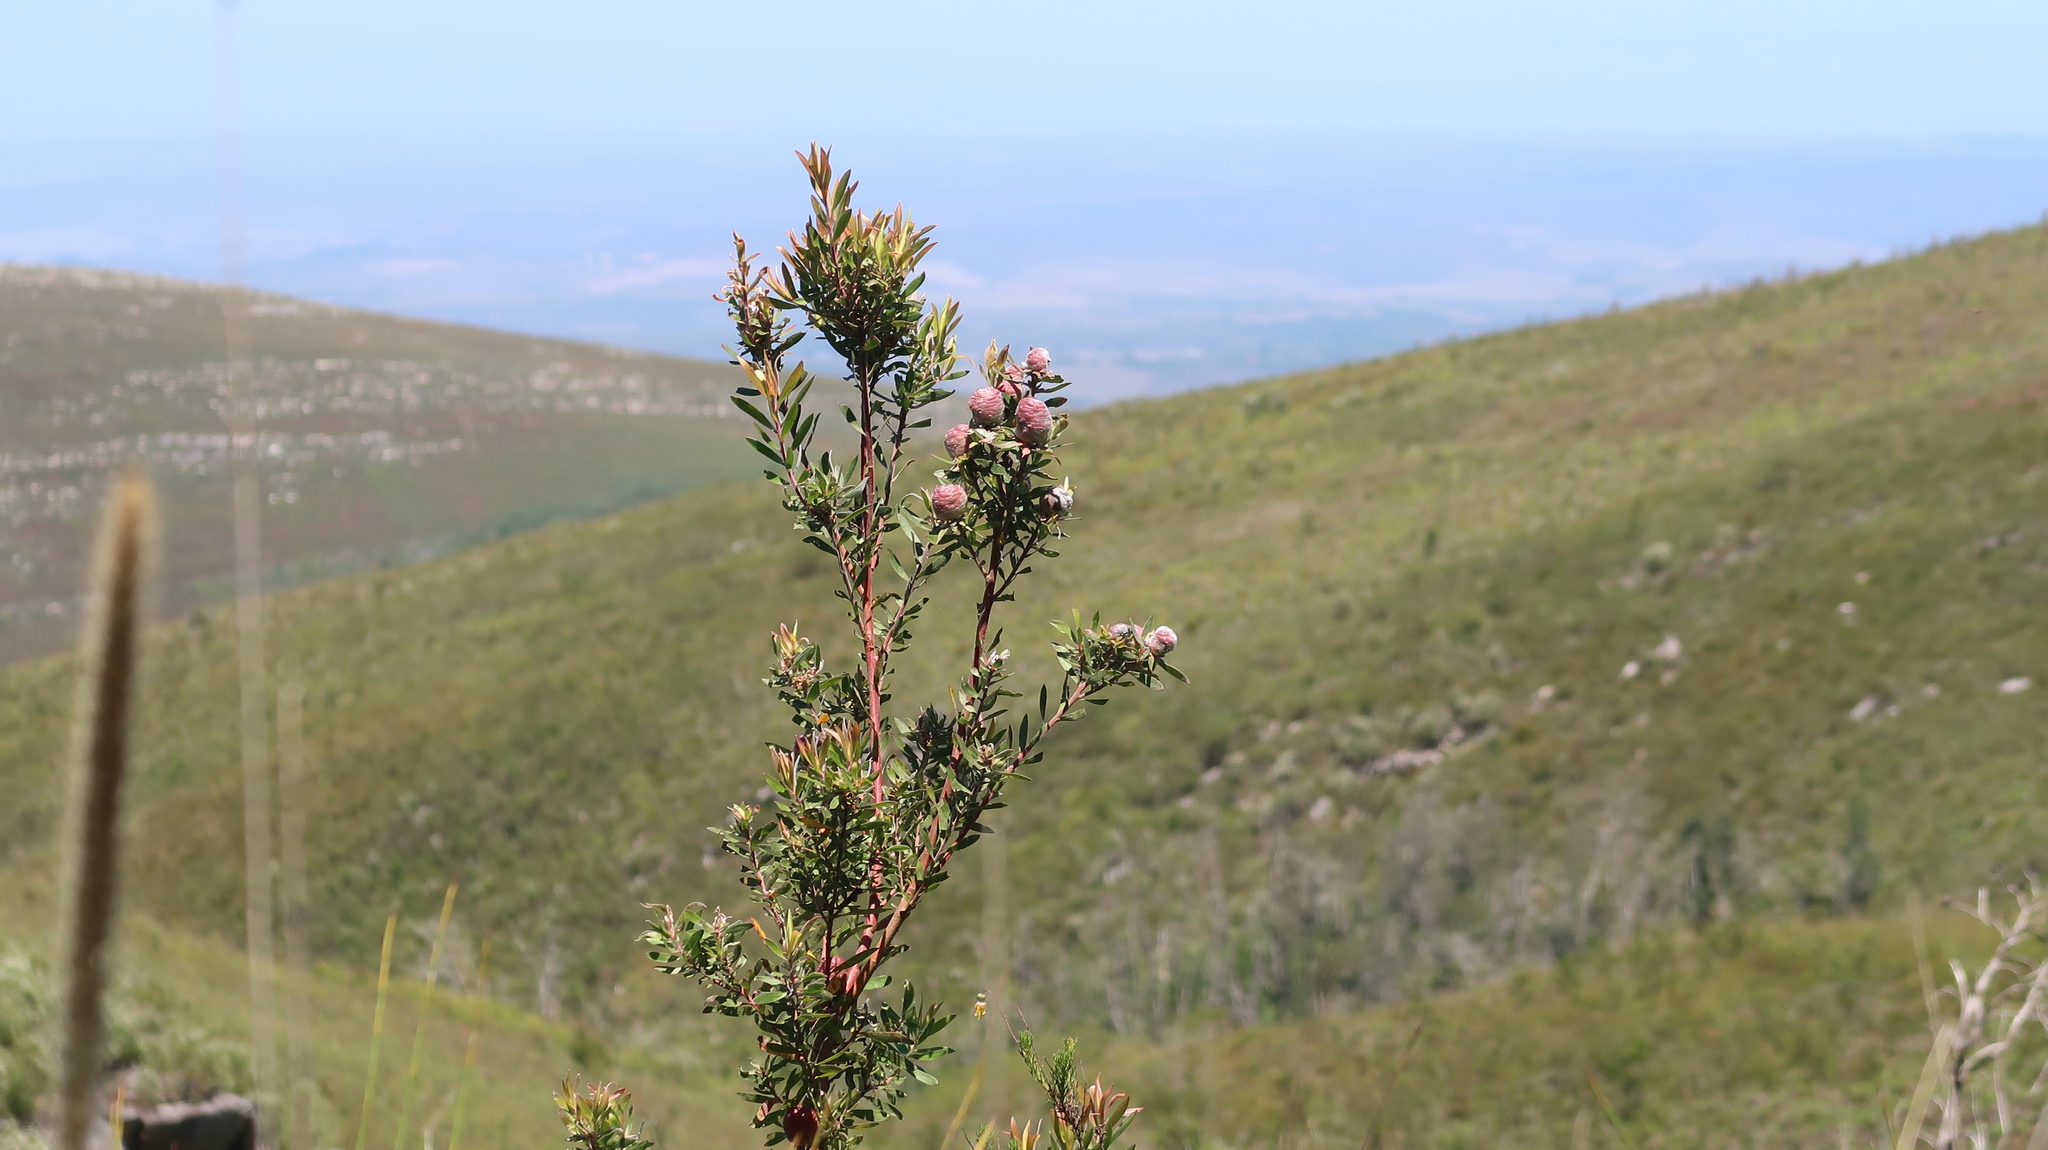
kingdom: Plantae
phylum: Tracheophyta
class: Magnoliopsida
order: Proteales
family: Proteaceae
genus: Leucadendron
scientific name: Leucadendron conicum
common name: Garden route conebush
